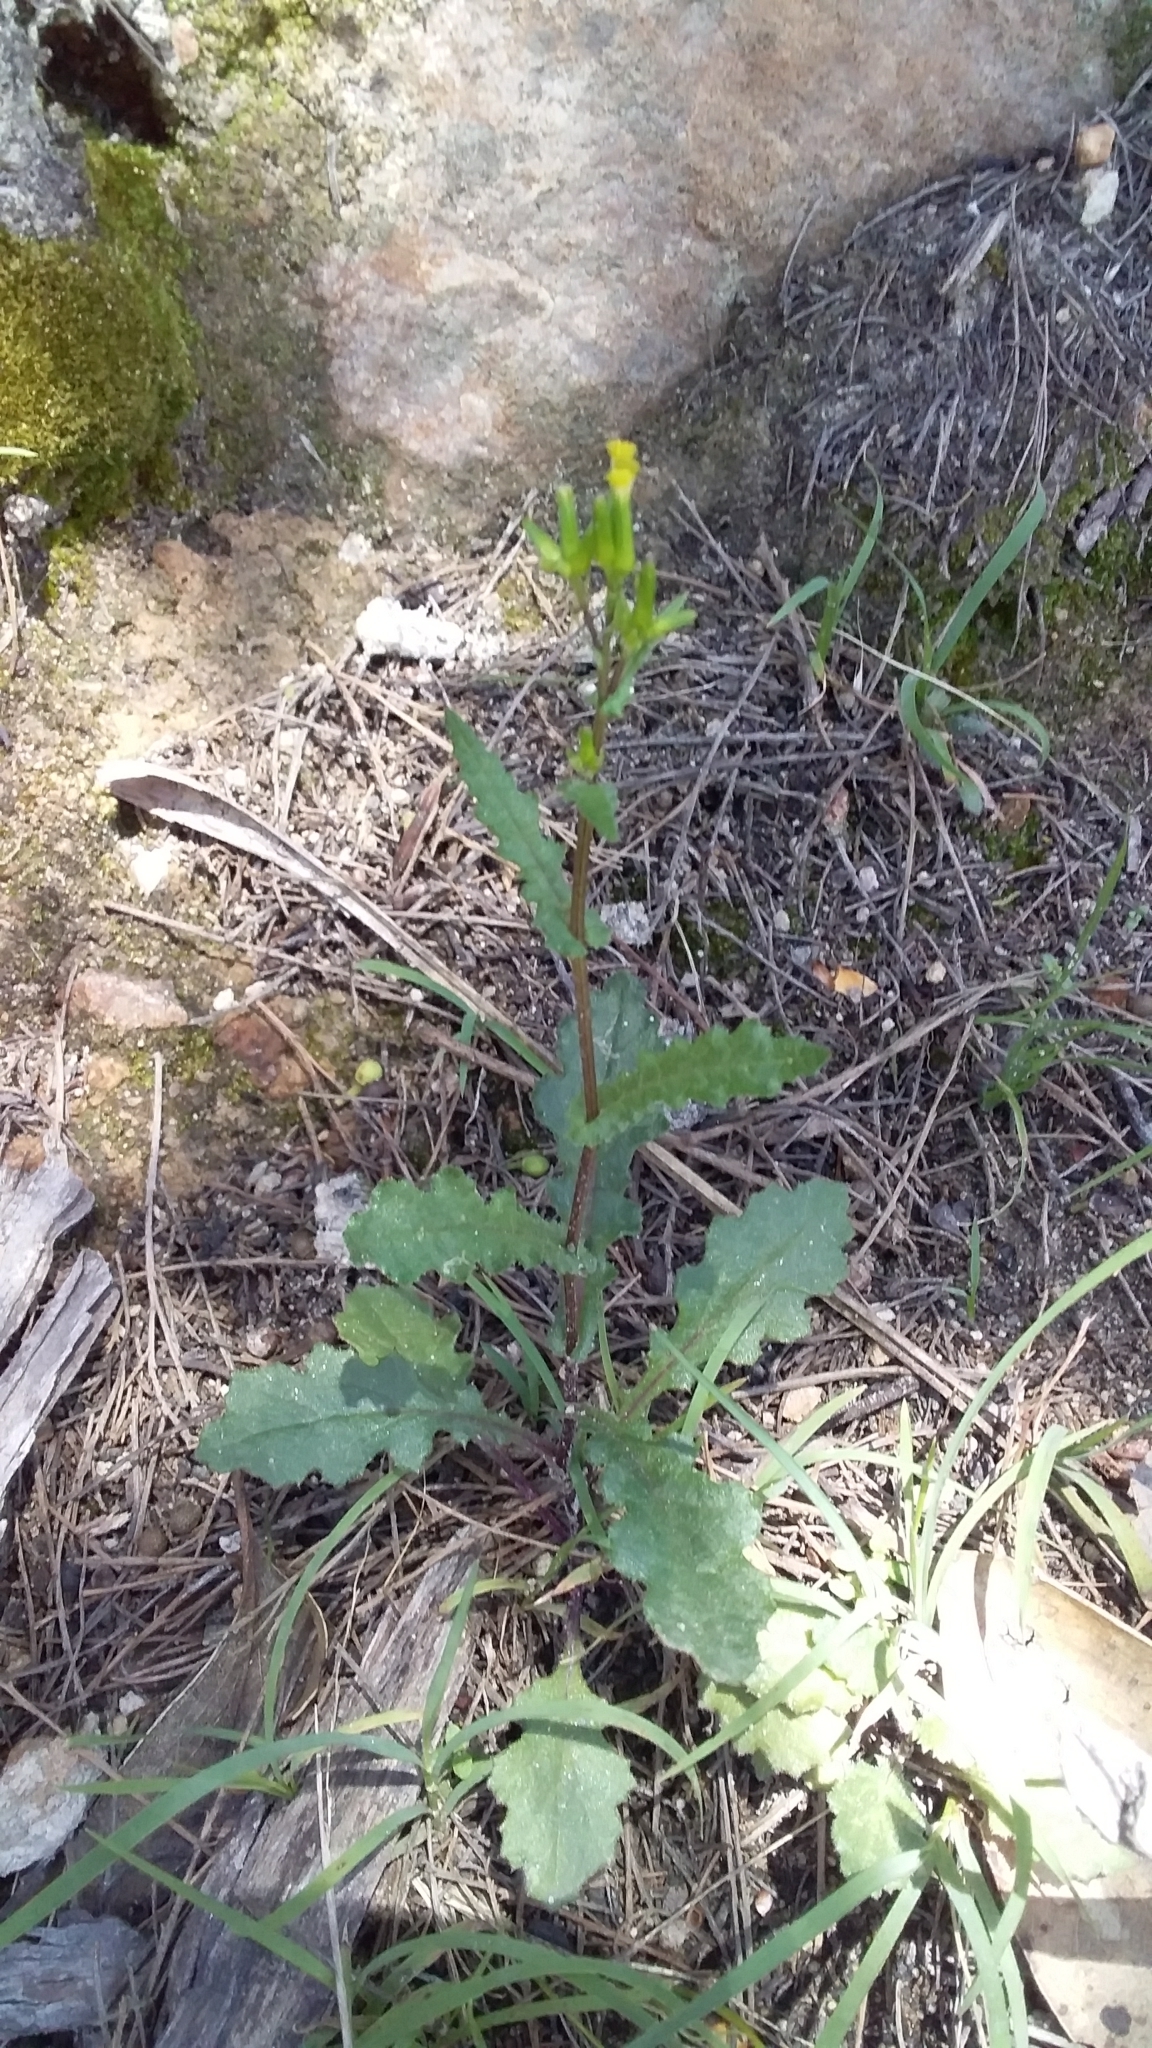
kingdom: Plantae
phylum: Tracheophyta
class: Magnoliopsida
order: Asterales
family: Asteraceae
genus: Senecio
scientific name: Senecio picridioides
